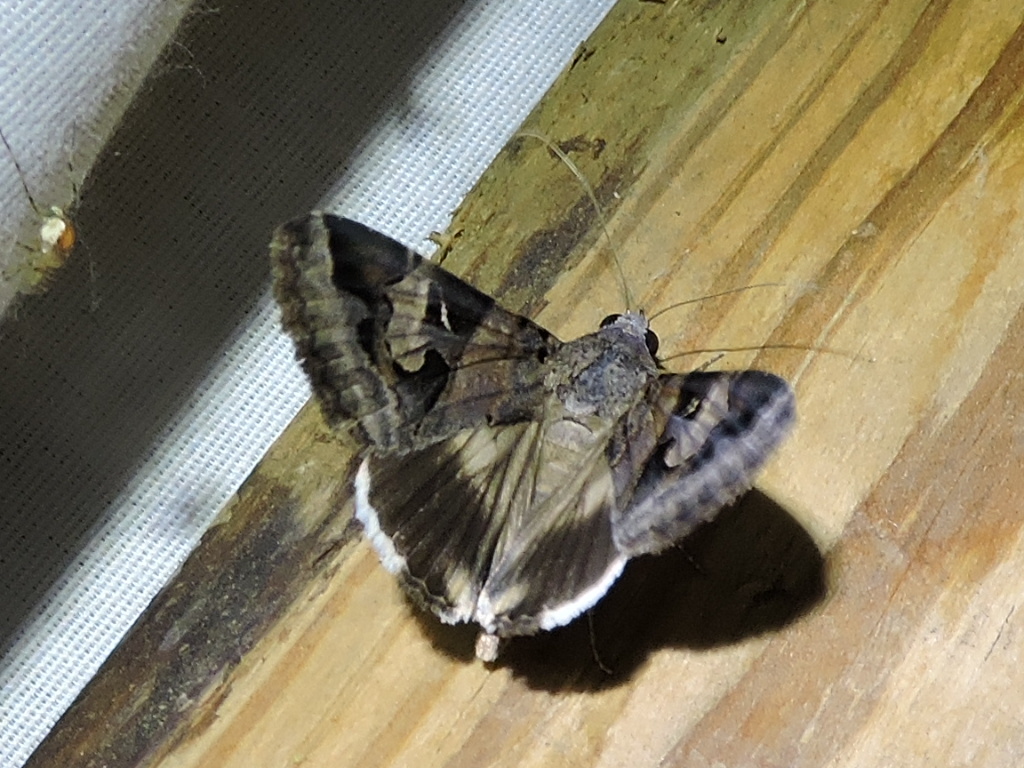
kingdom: Animalia
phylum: Arthropoda
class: Insecta
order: Lepidoptera
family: Erebidae
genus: Melipotis
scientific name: Melipotis indomita
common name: Moth
